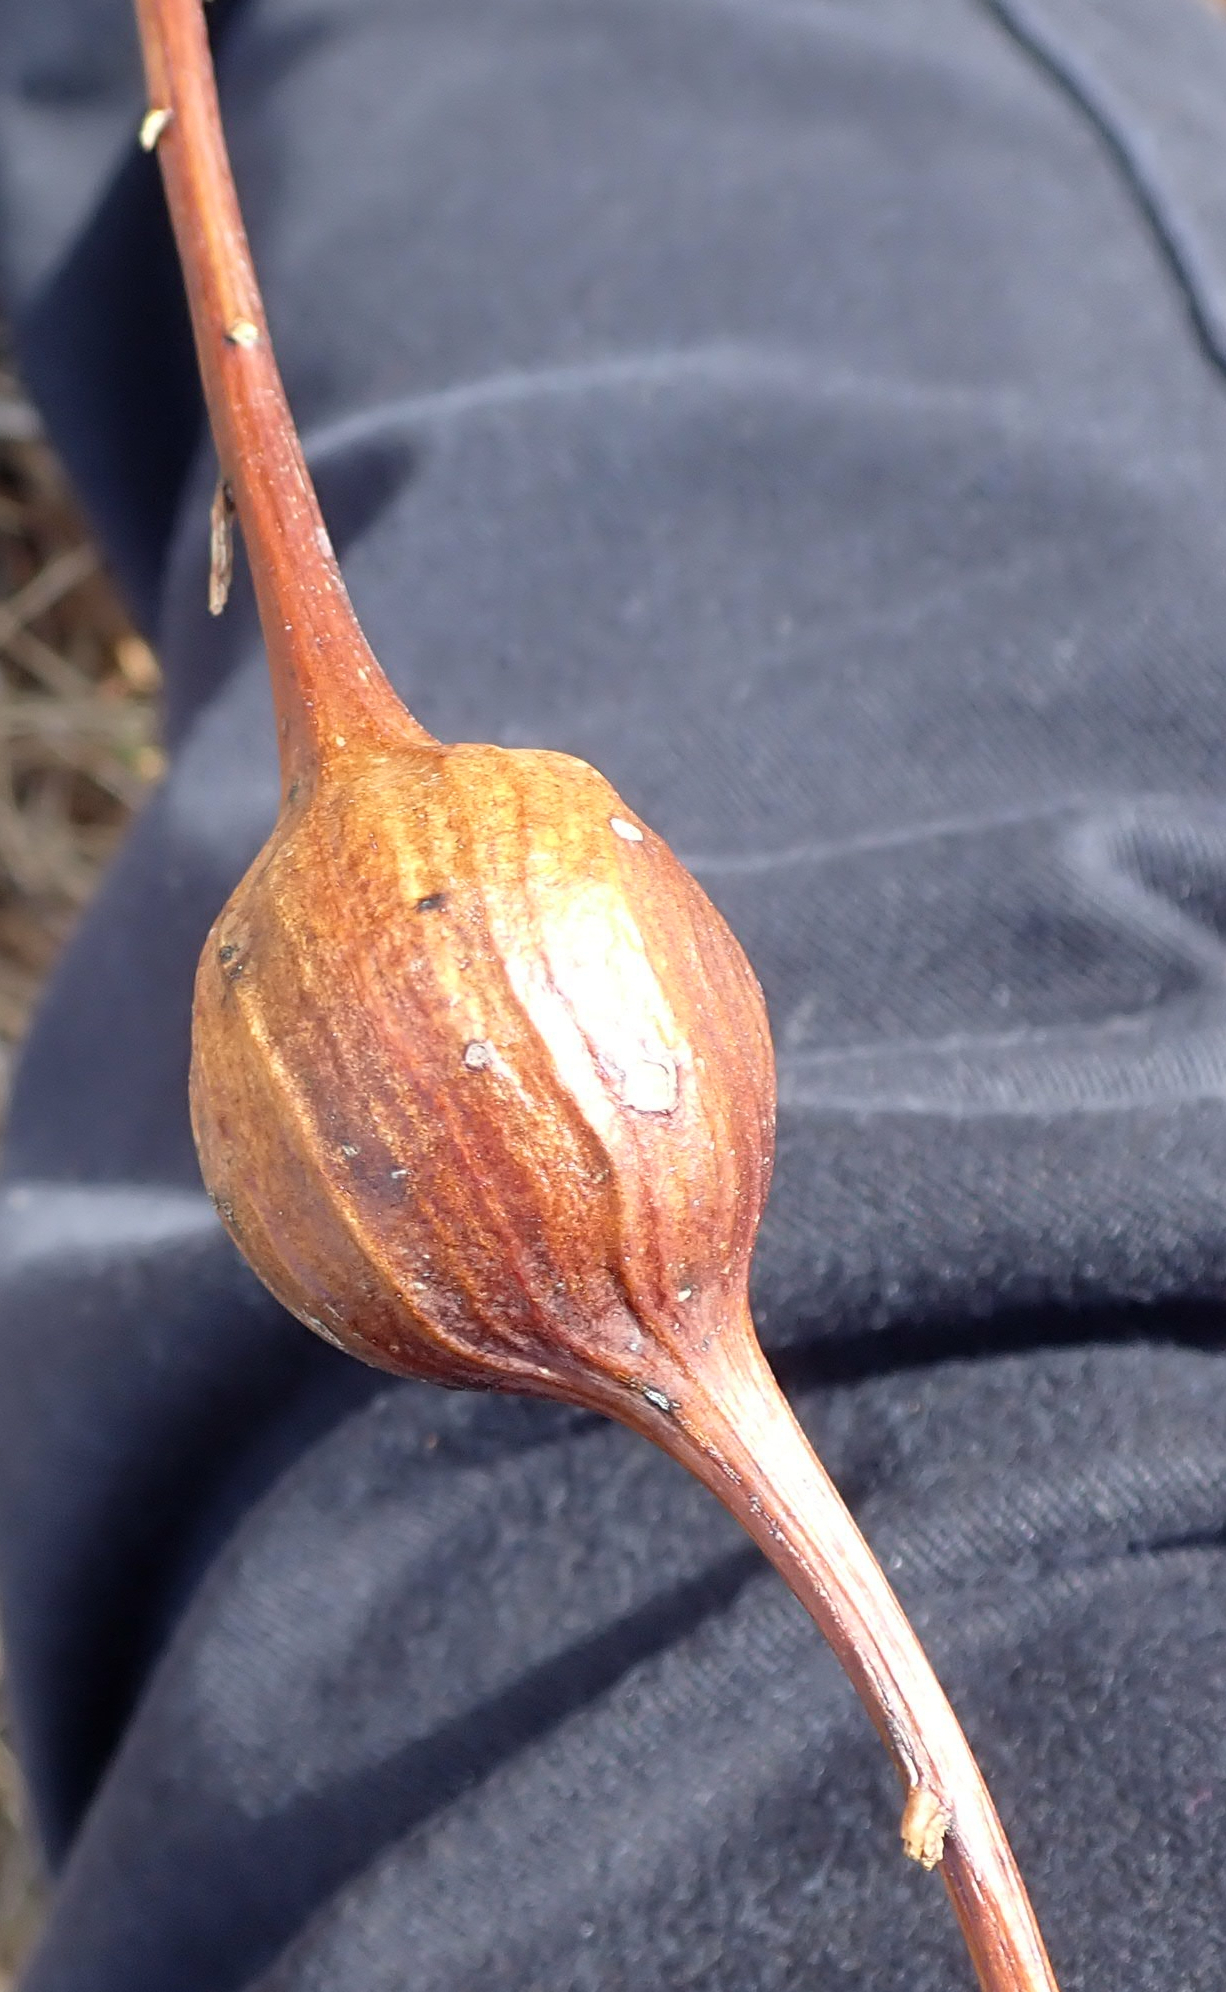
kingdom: Animalia
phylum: Arthropoda
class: Insecta
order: Diptera
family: Tephritidae
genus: Eurosta
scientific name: Eurosta solidaginis
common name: Goldenrod gall fly
